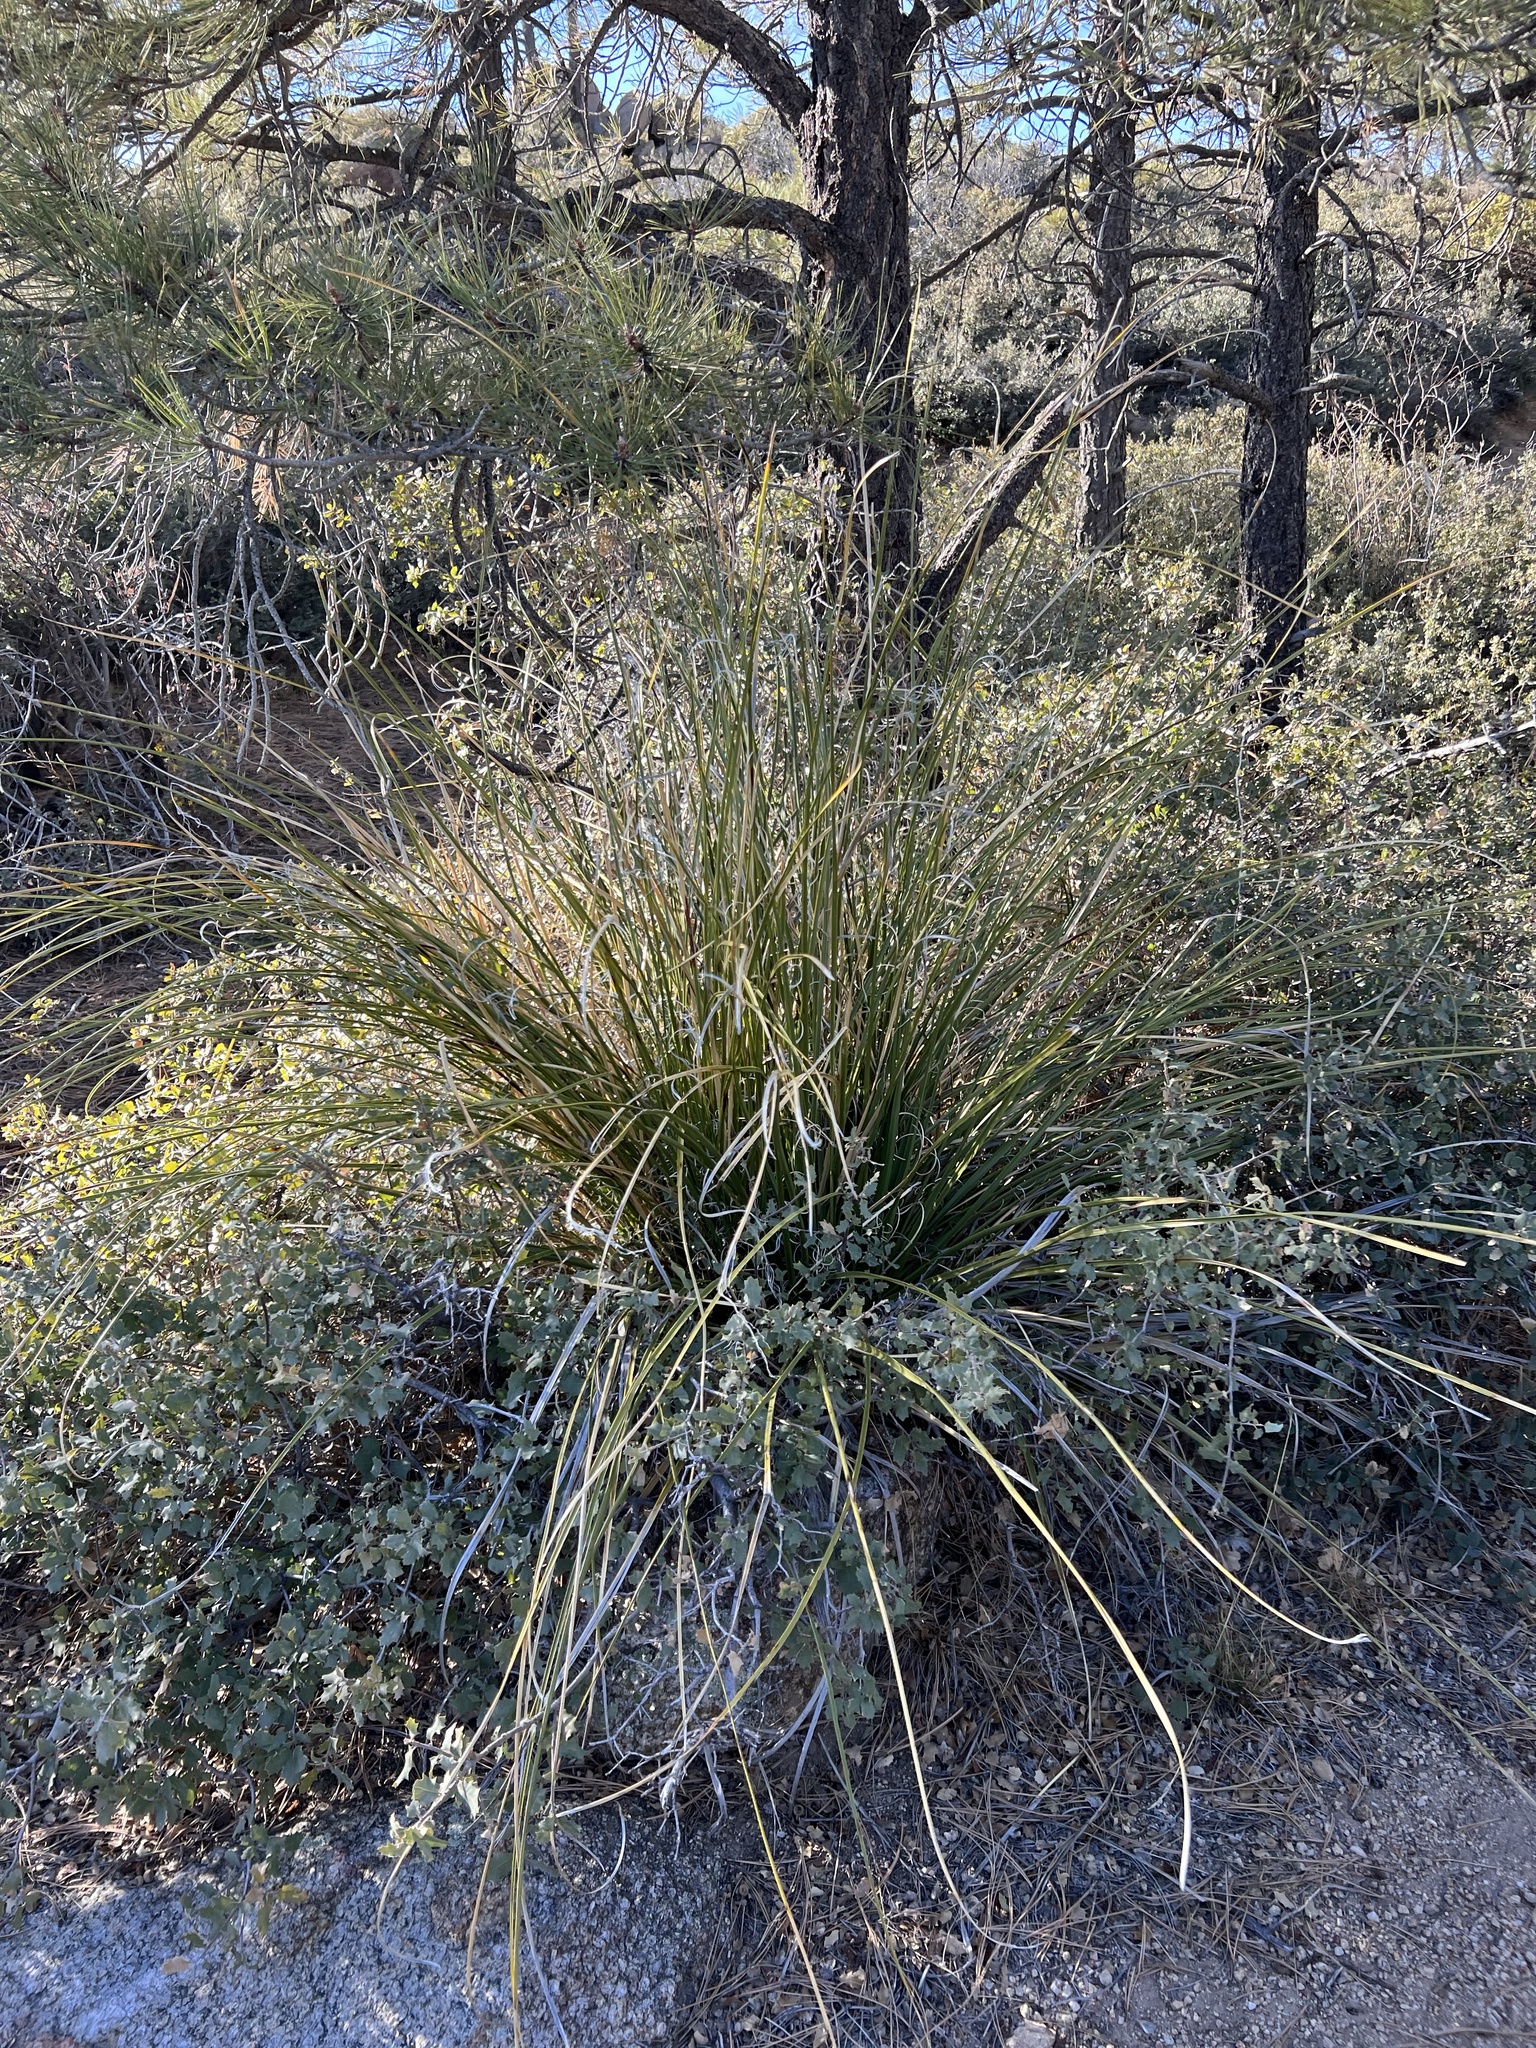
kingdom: Plantae
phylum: Tracheophyta
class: Liliopsida
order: Asparagales
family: Asparagaceae
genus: Nolina
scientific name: Nolina microcarpa
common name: Bear-grass
